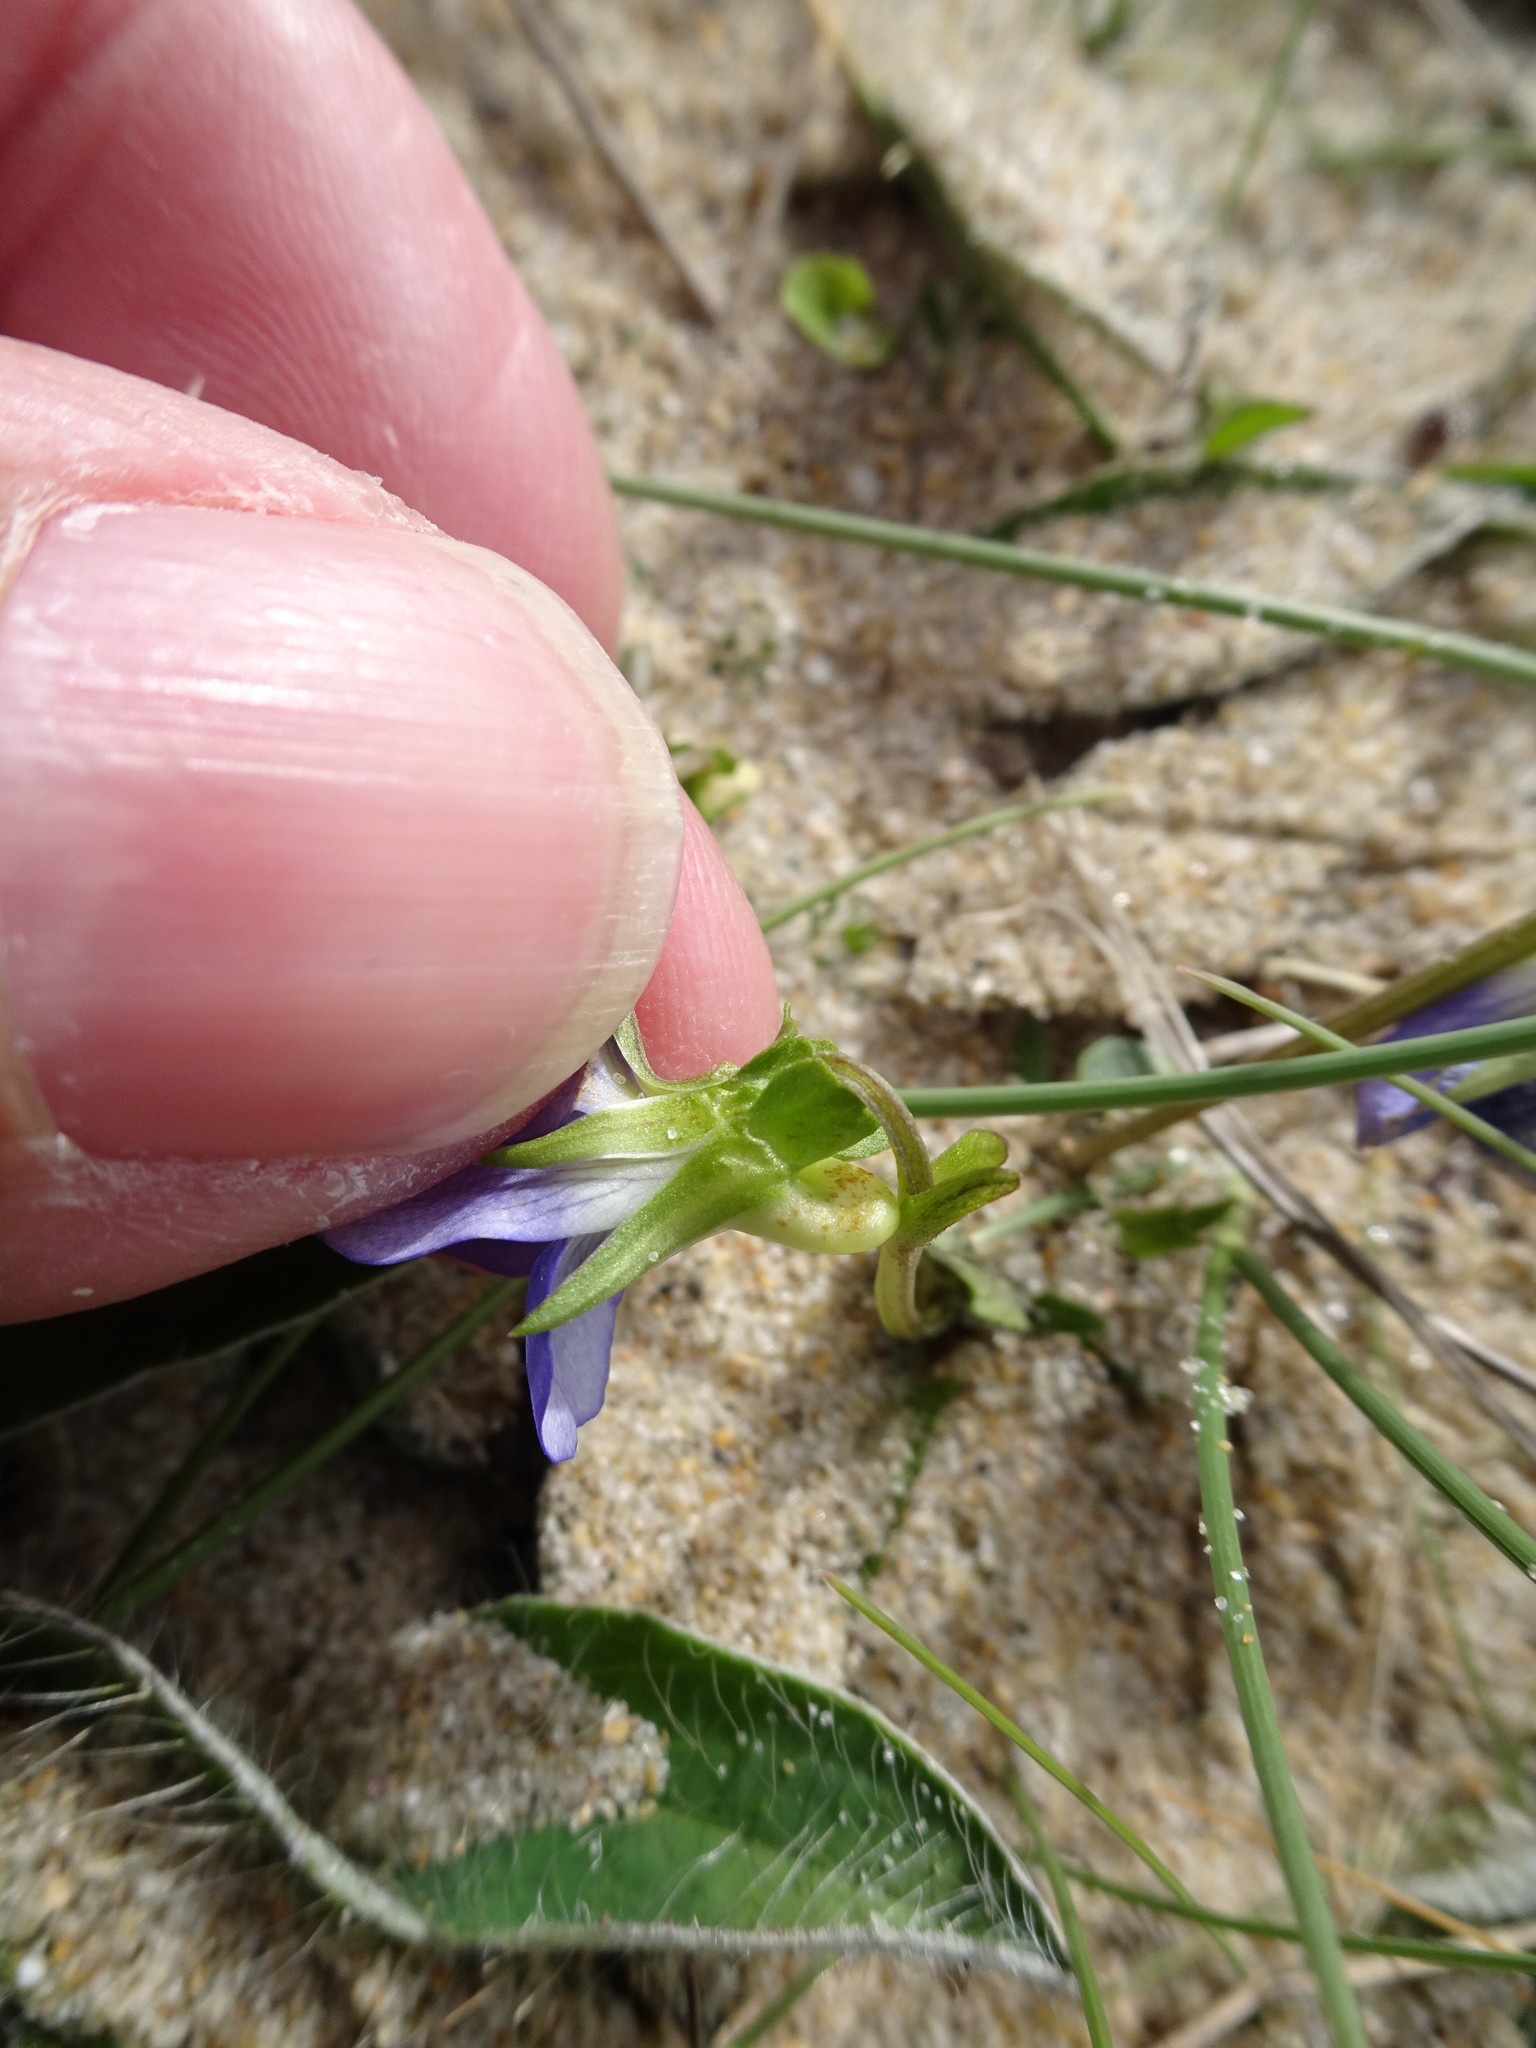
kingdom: Plantae
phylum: Tracheophyta
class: Magnoliopsida
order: Malpighiales
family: Violaceae
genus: Viola
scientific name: Viola canina
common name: Heath dog-violet
